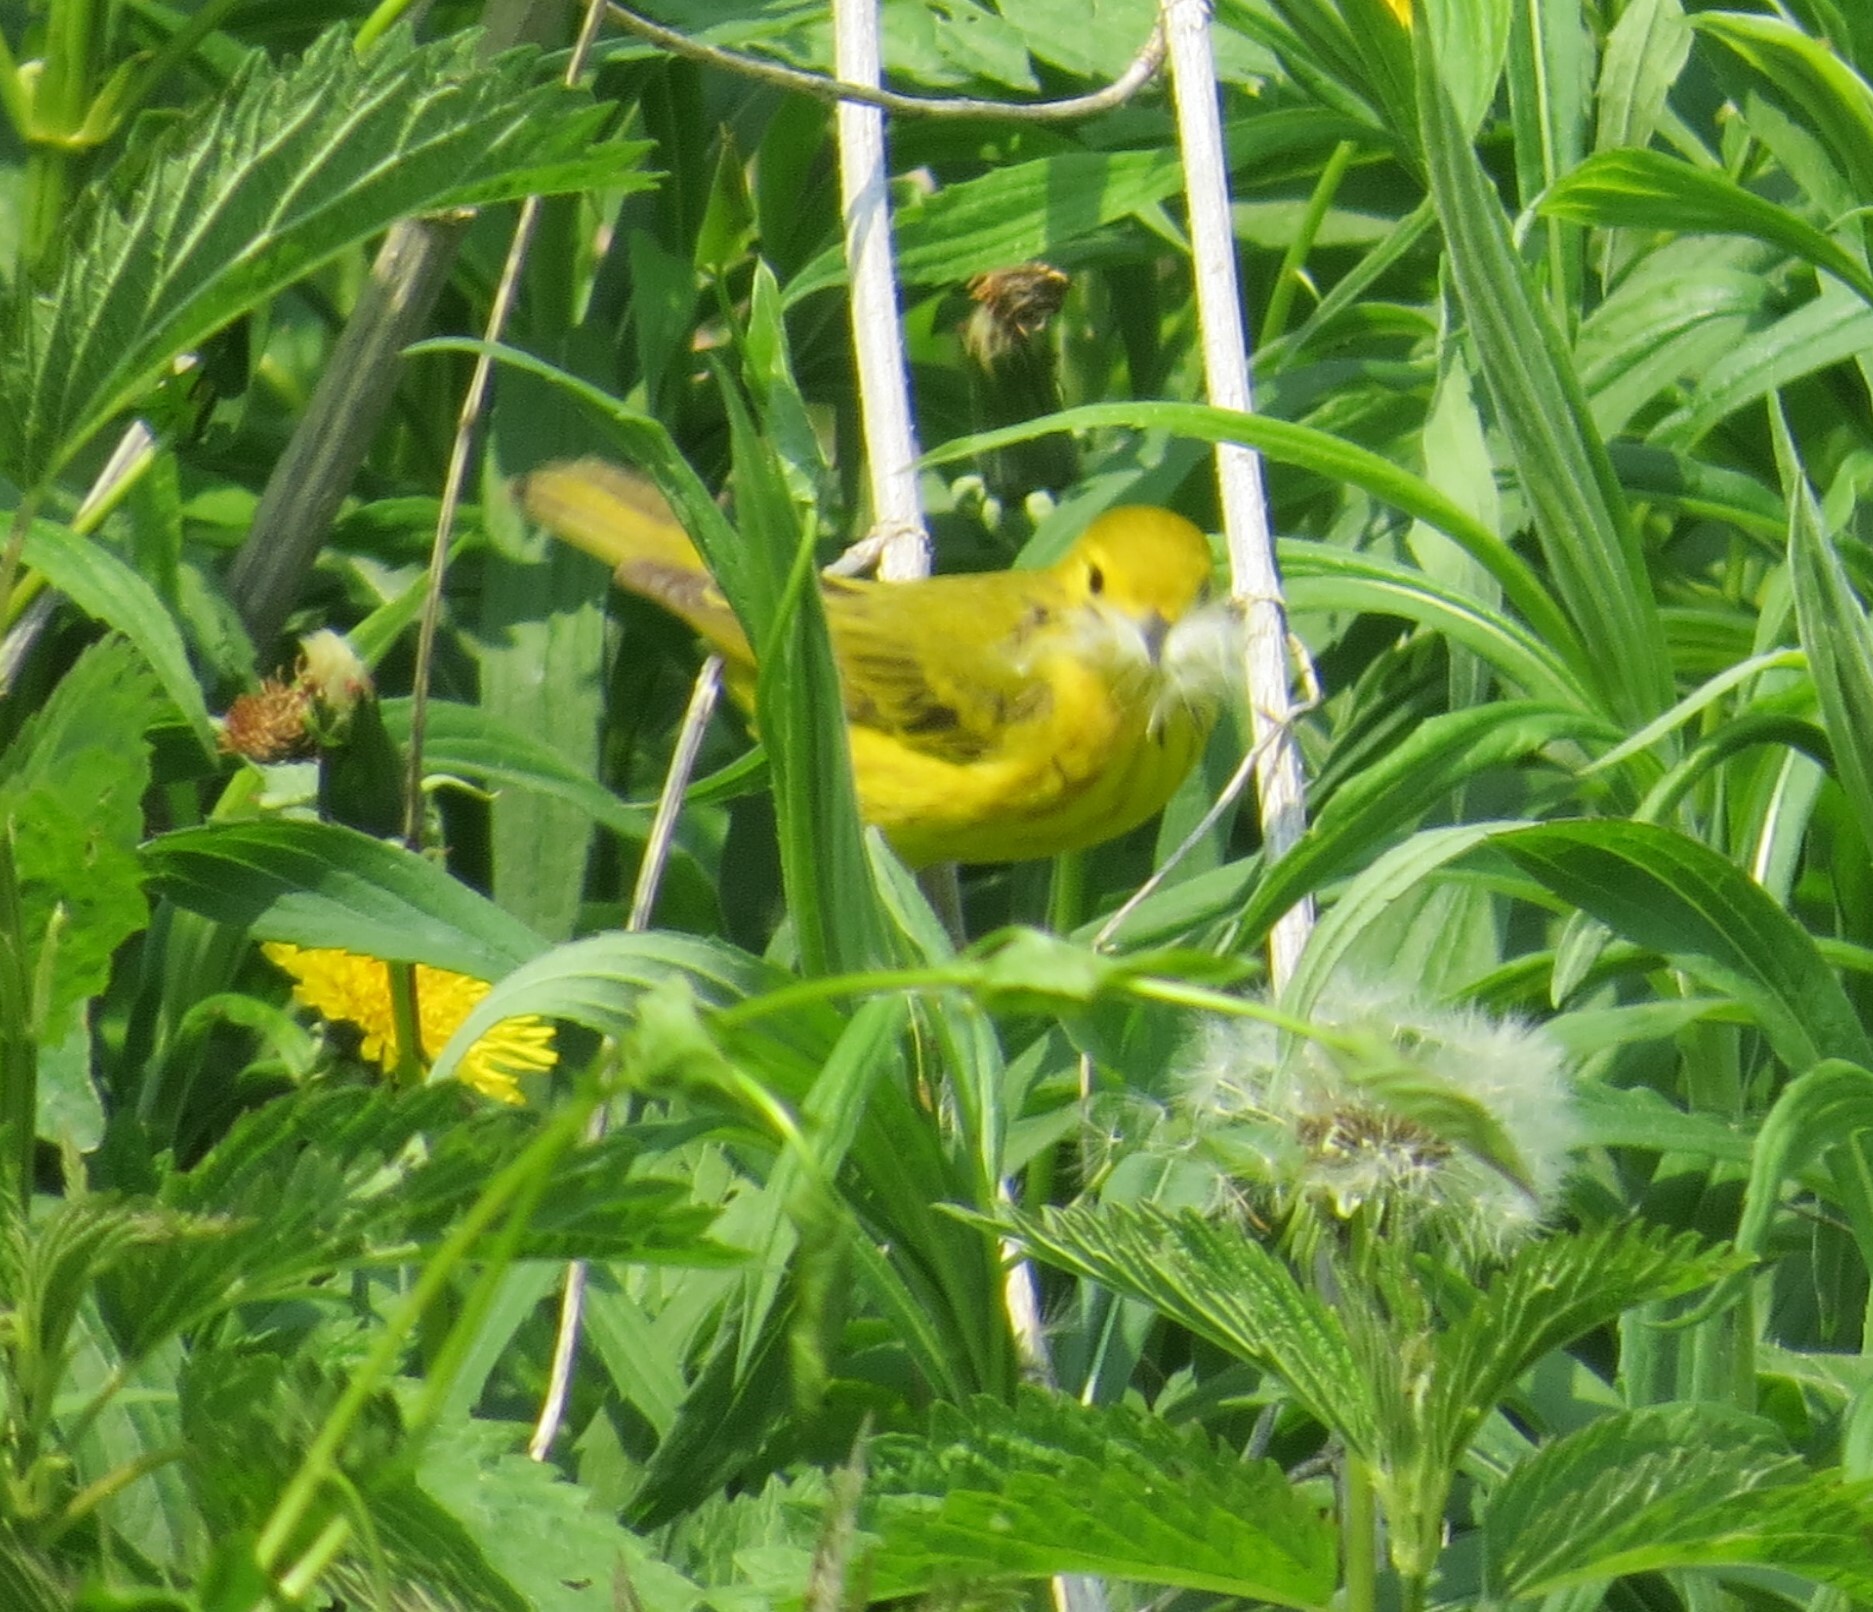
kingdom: Animalia
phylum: Chordata
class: Aves
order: Passeriformes
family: Parulidae
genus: Setophaga
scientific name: Setophaga petechia
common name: Yellow warbler
